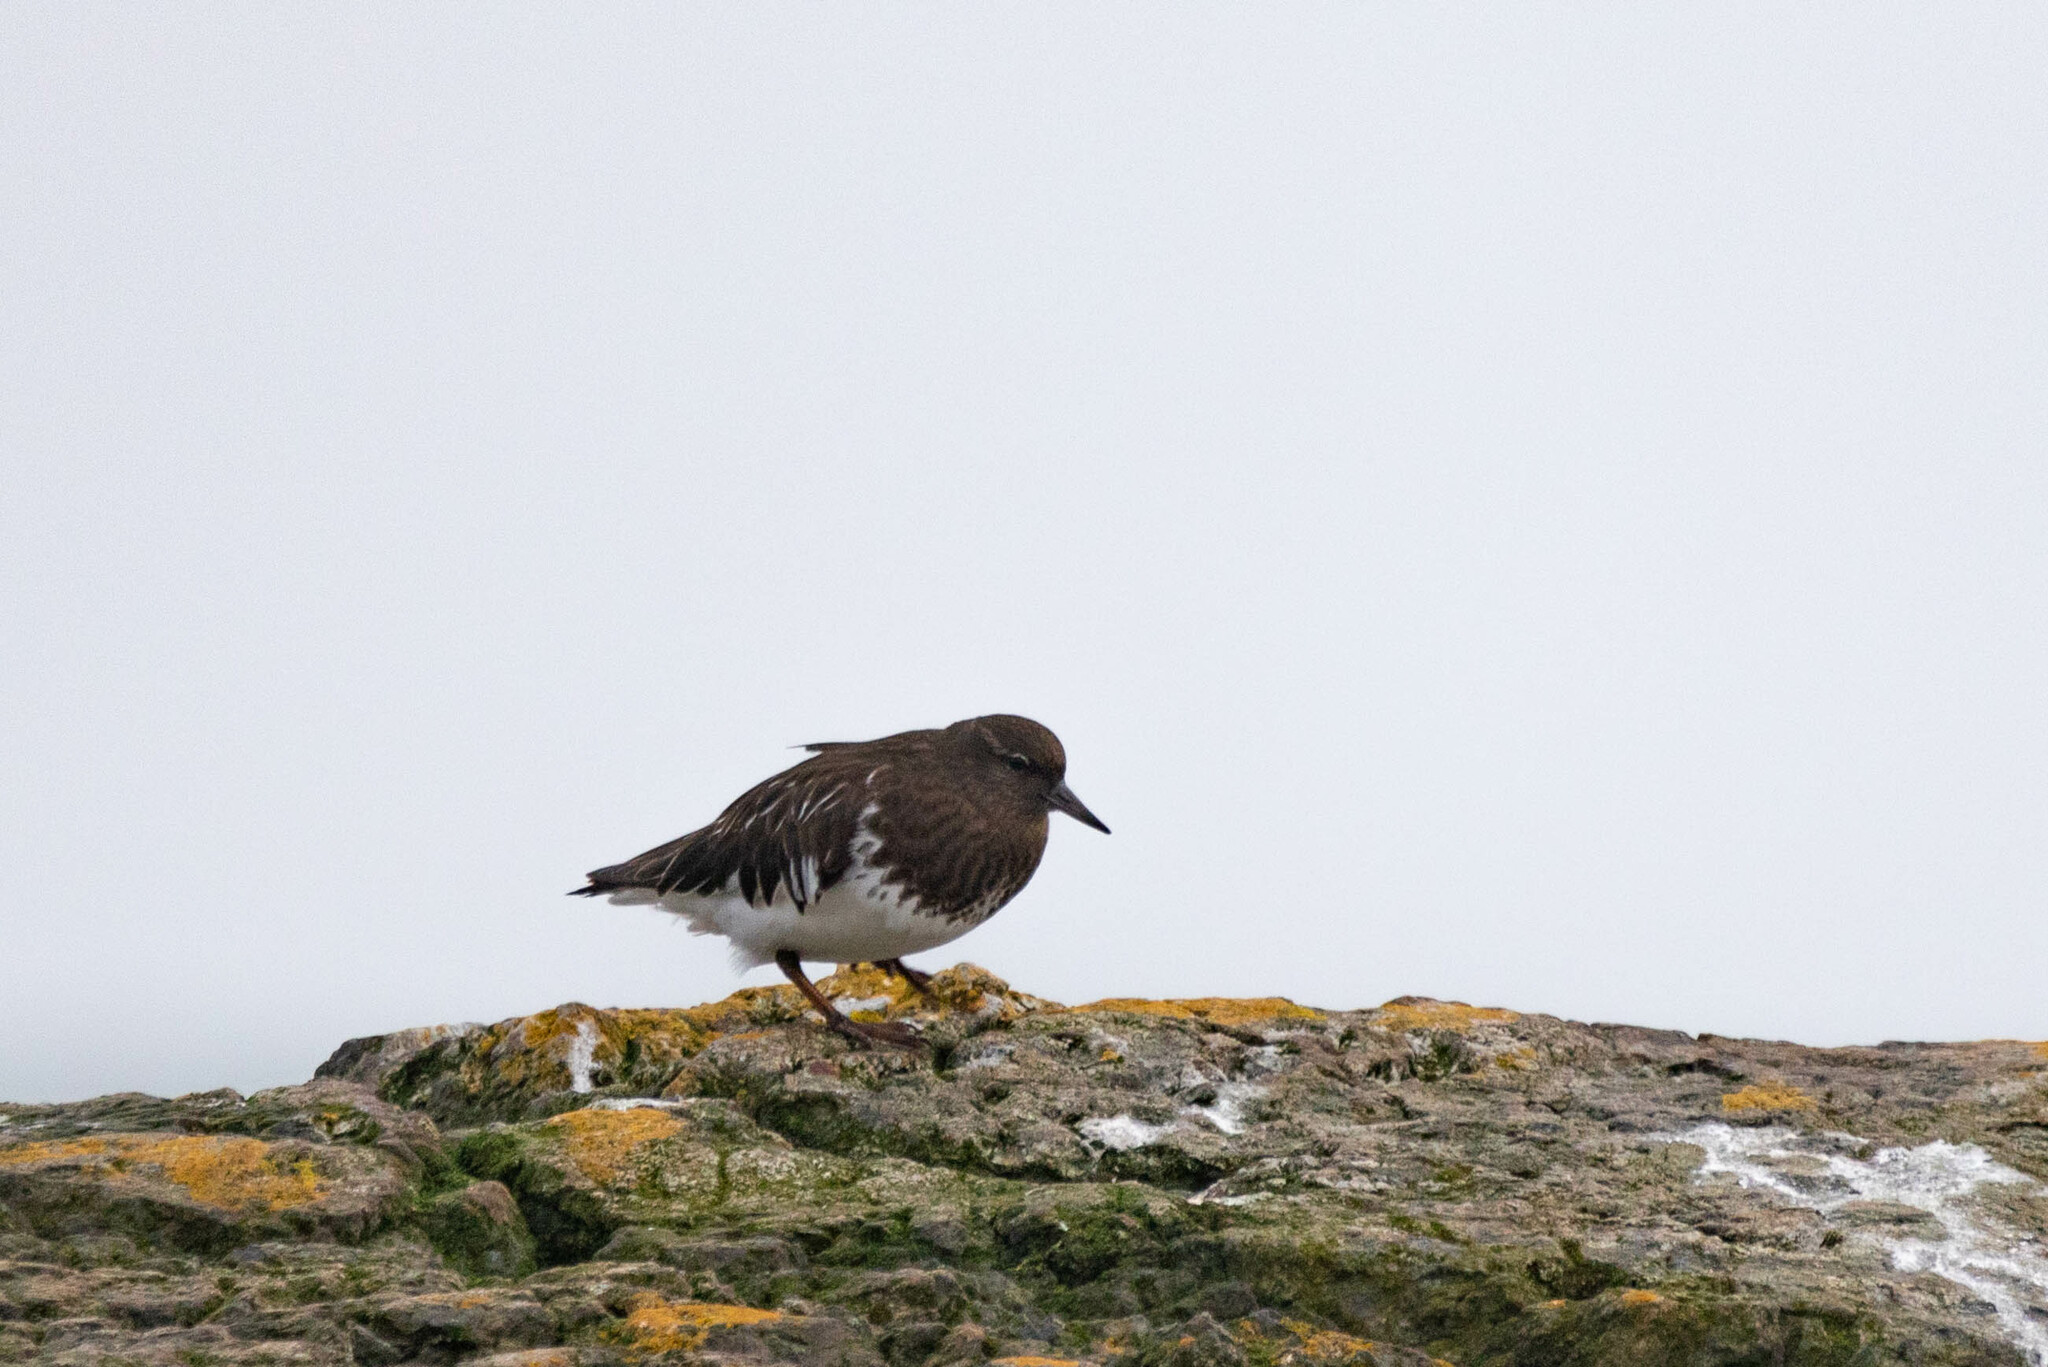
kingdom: Animalia
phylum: Chordata
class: Aves
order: Charadriiformes
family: Scolopacidae
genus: Arenaria
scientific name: Arenaria melanocephala
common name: Black turnstone
